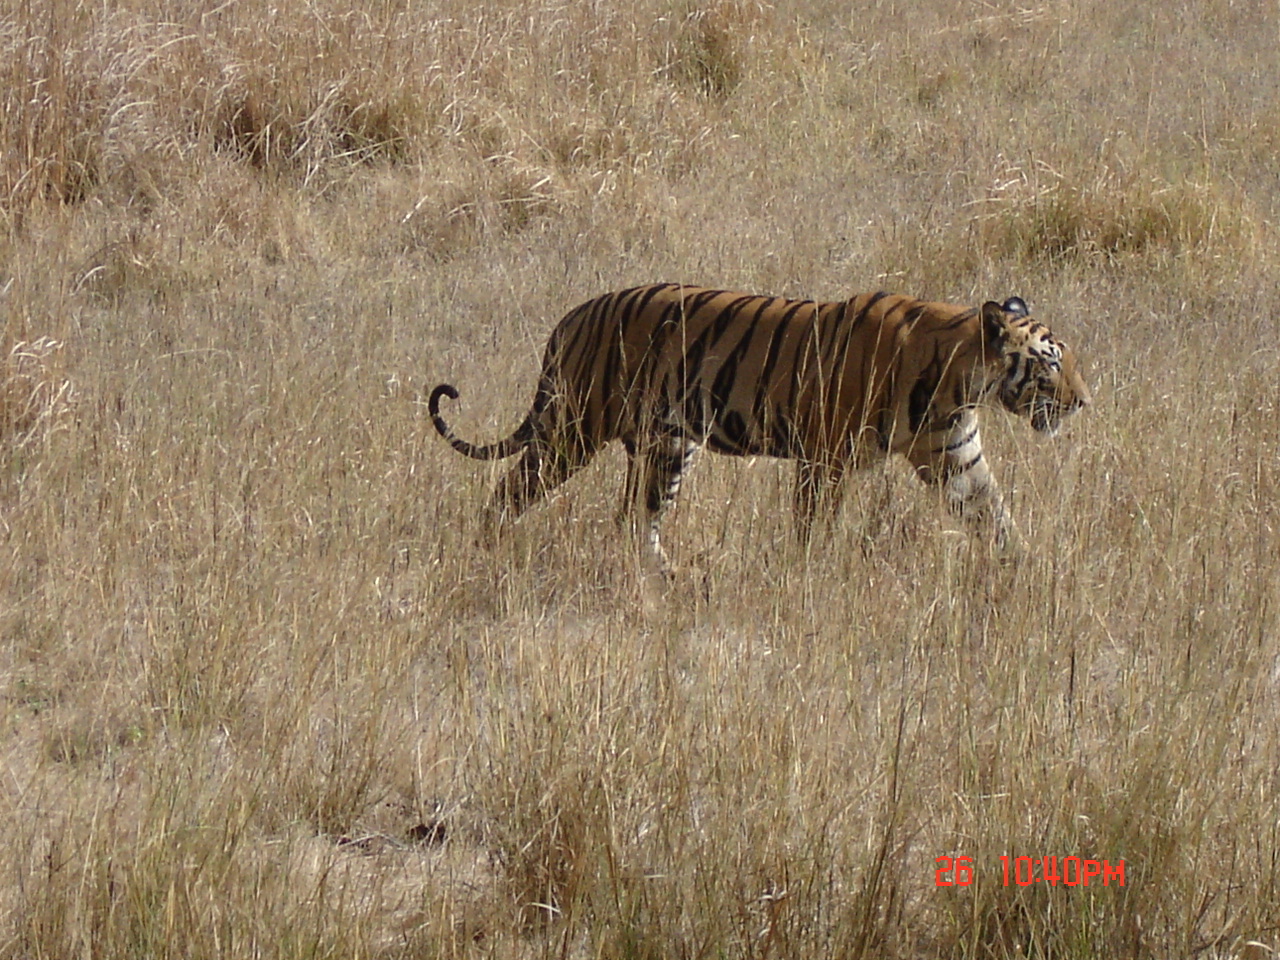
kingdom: Animalia
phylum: Chordata
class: Mammalia
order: Carnivora
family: Felidae
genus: Panthera
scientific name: Panthera tigris
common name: Tiger
